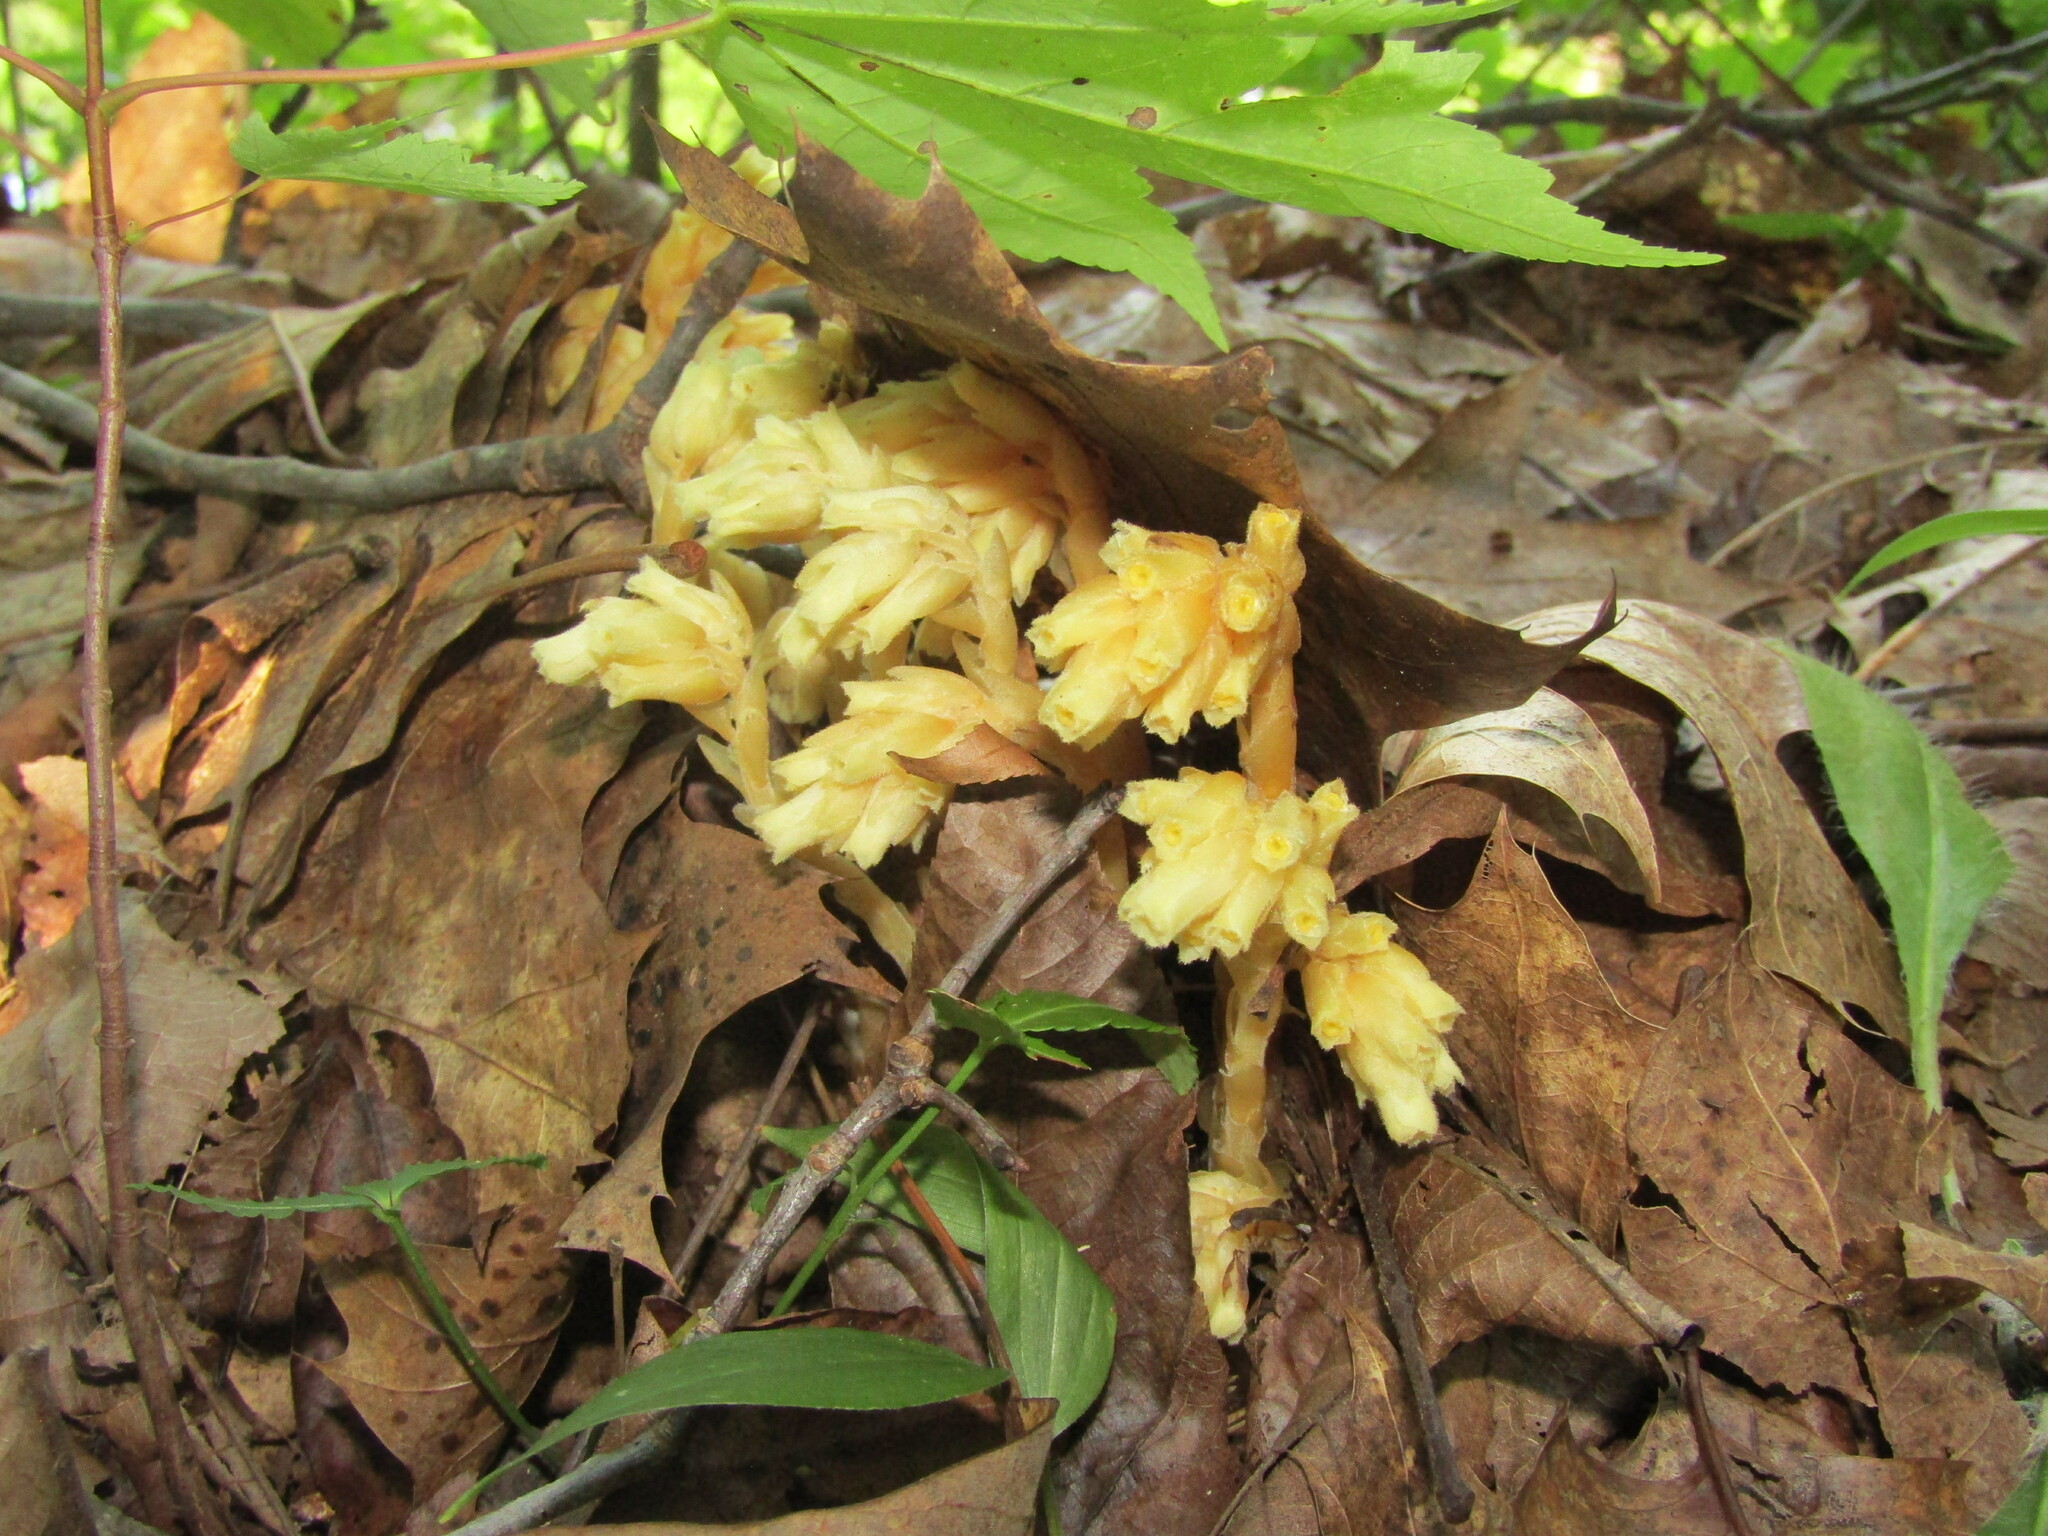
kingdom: Plantae
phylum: Tracheophyta
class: Magnoliopsida
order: Ericales
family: Ericaceae
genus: Hypopitys
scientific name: Hypopitys monotropa
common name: Yellow bird's-nest
